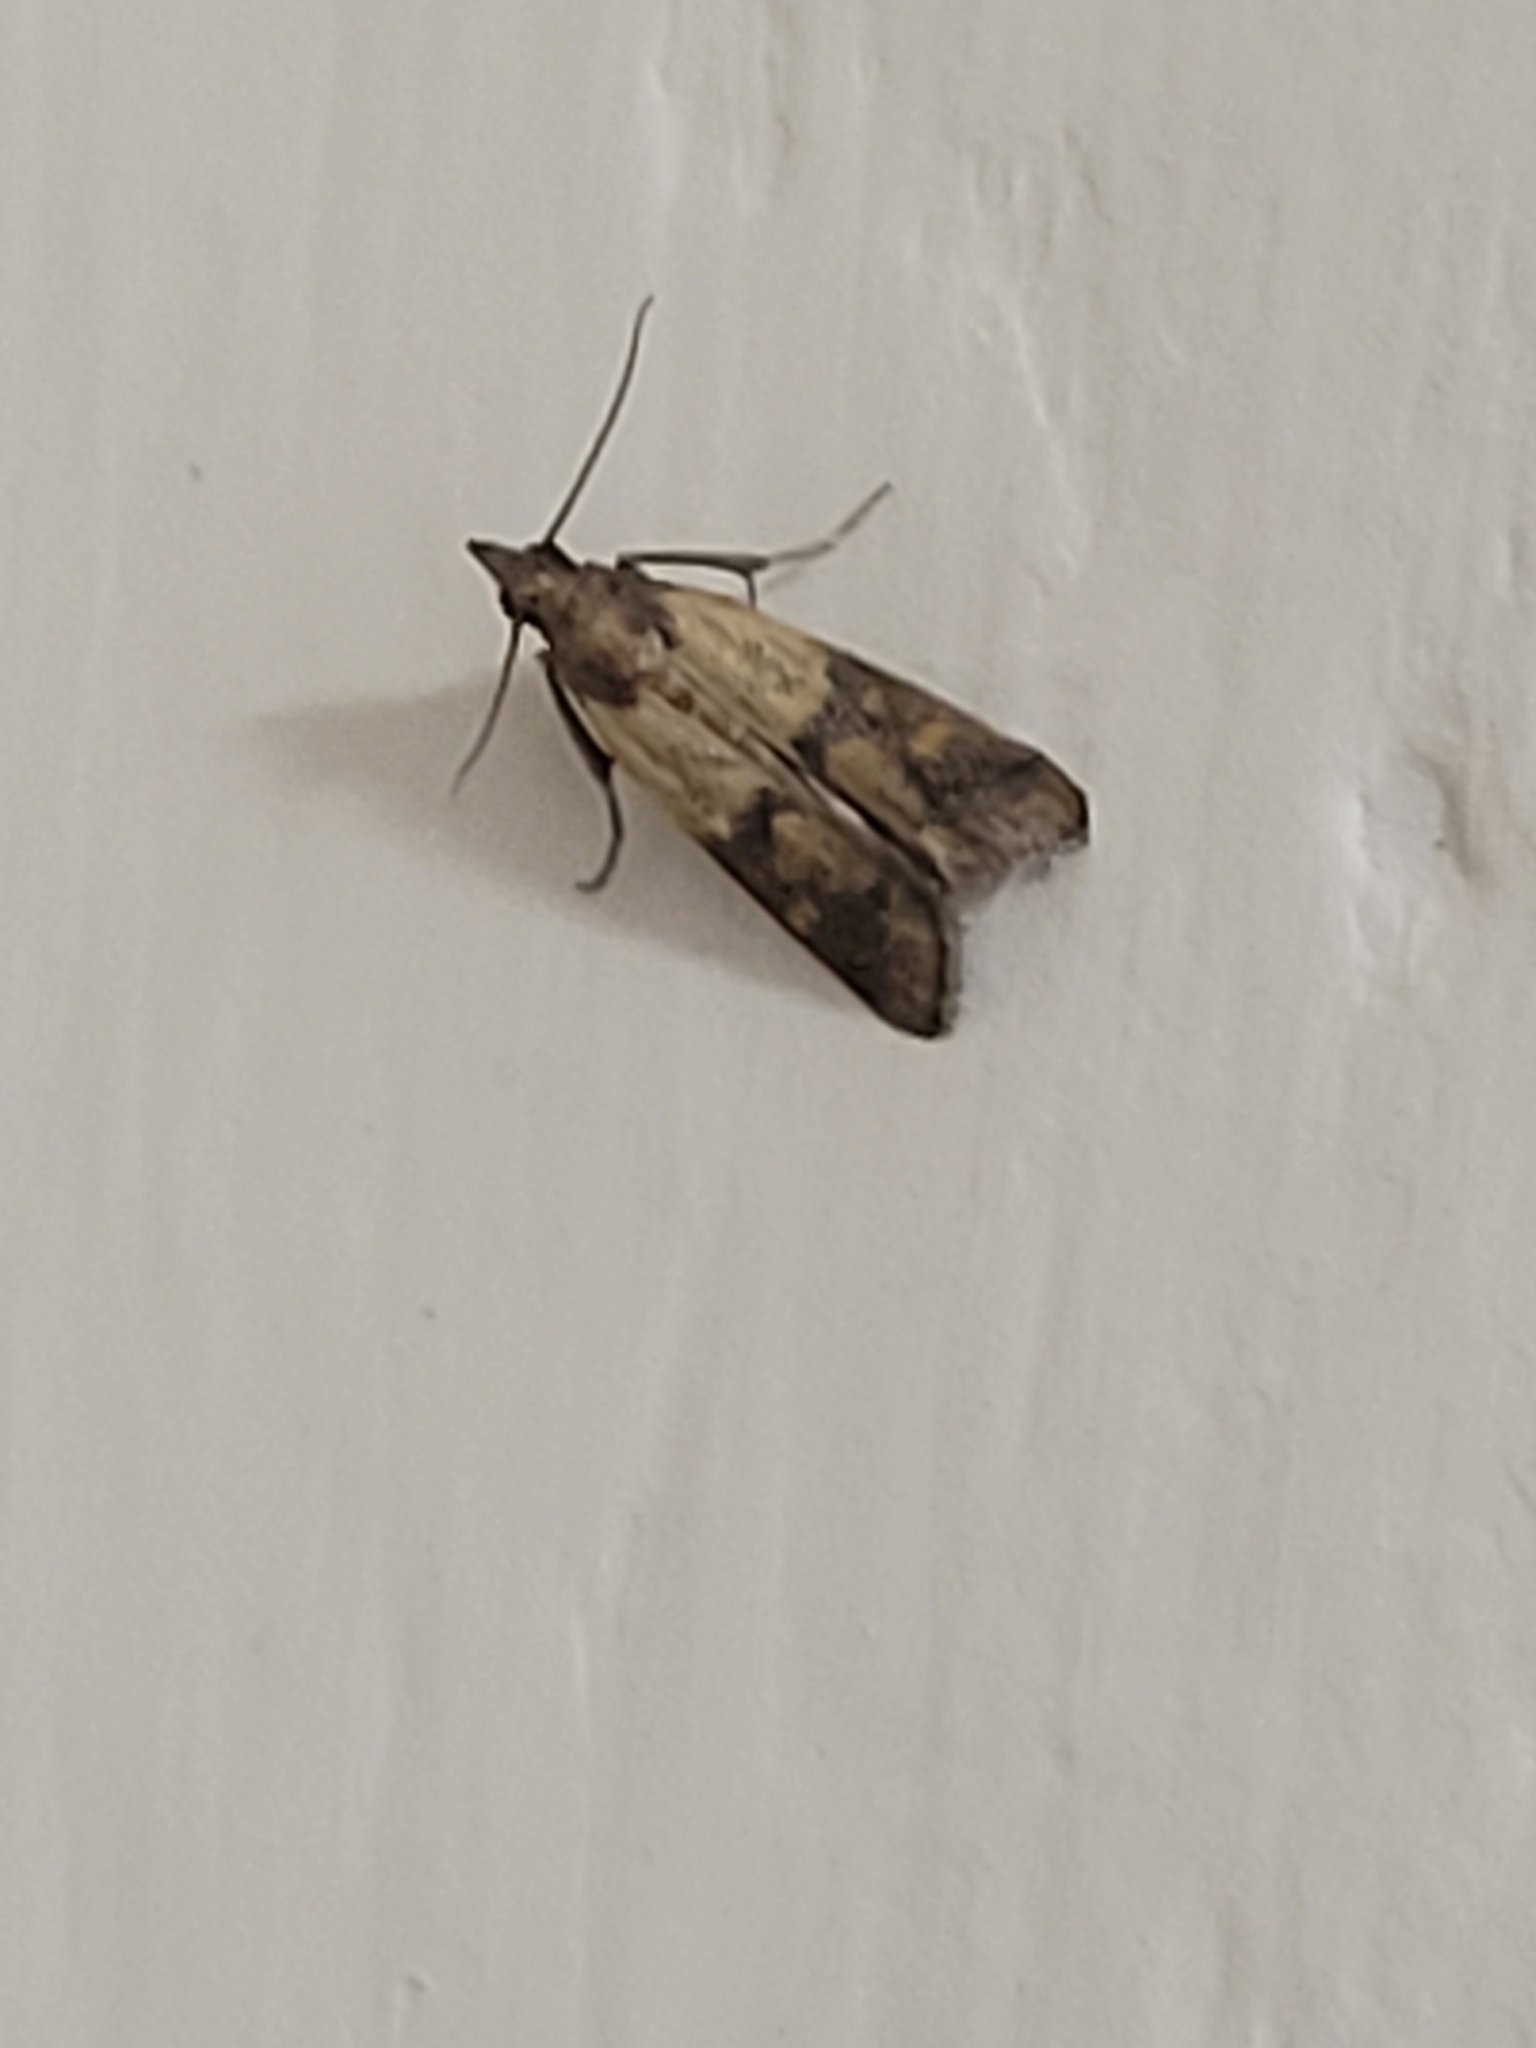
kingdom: Animalia
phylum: Arthropoda
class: Insecta
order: Lepidoptera
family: Pyralidae
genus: Plodia
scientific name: Plodia interpunctella
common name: Indian meal moth
